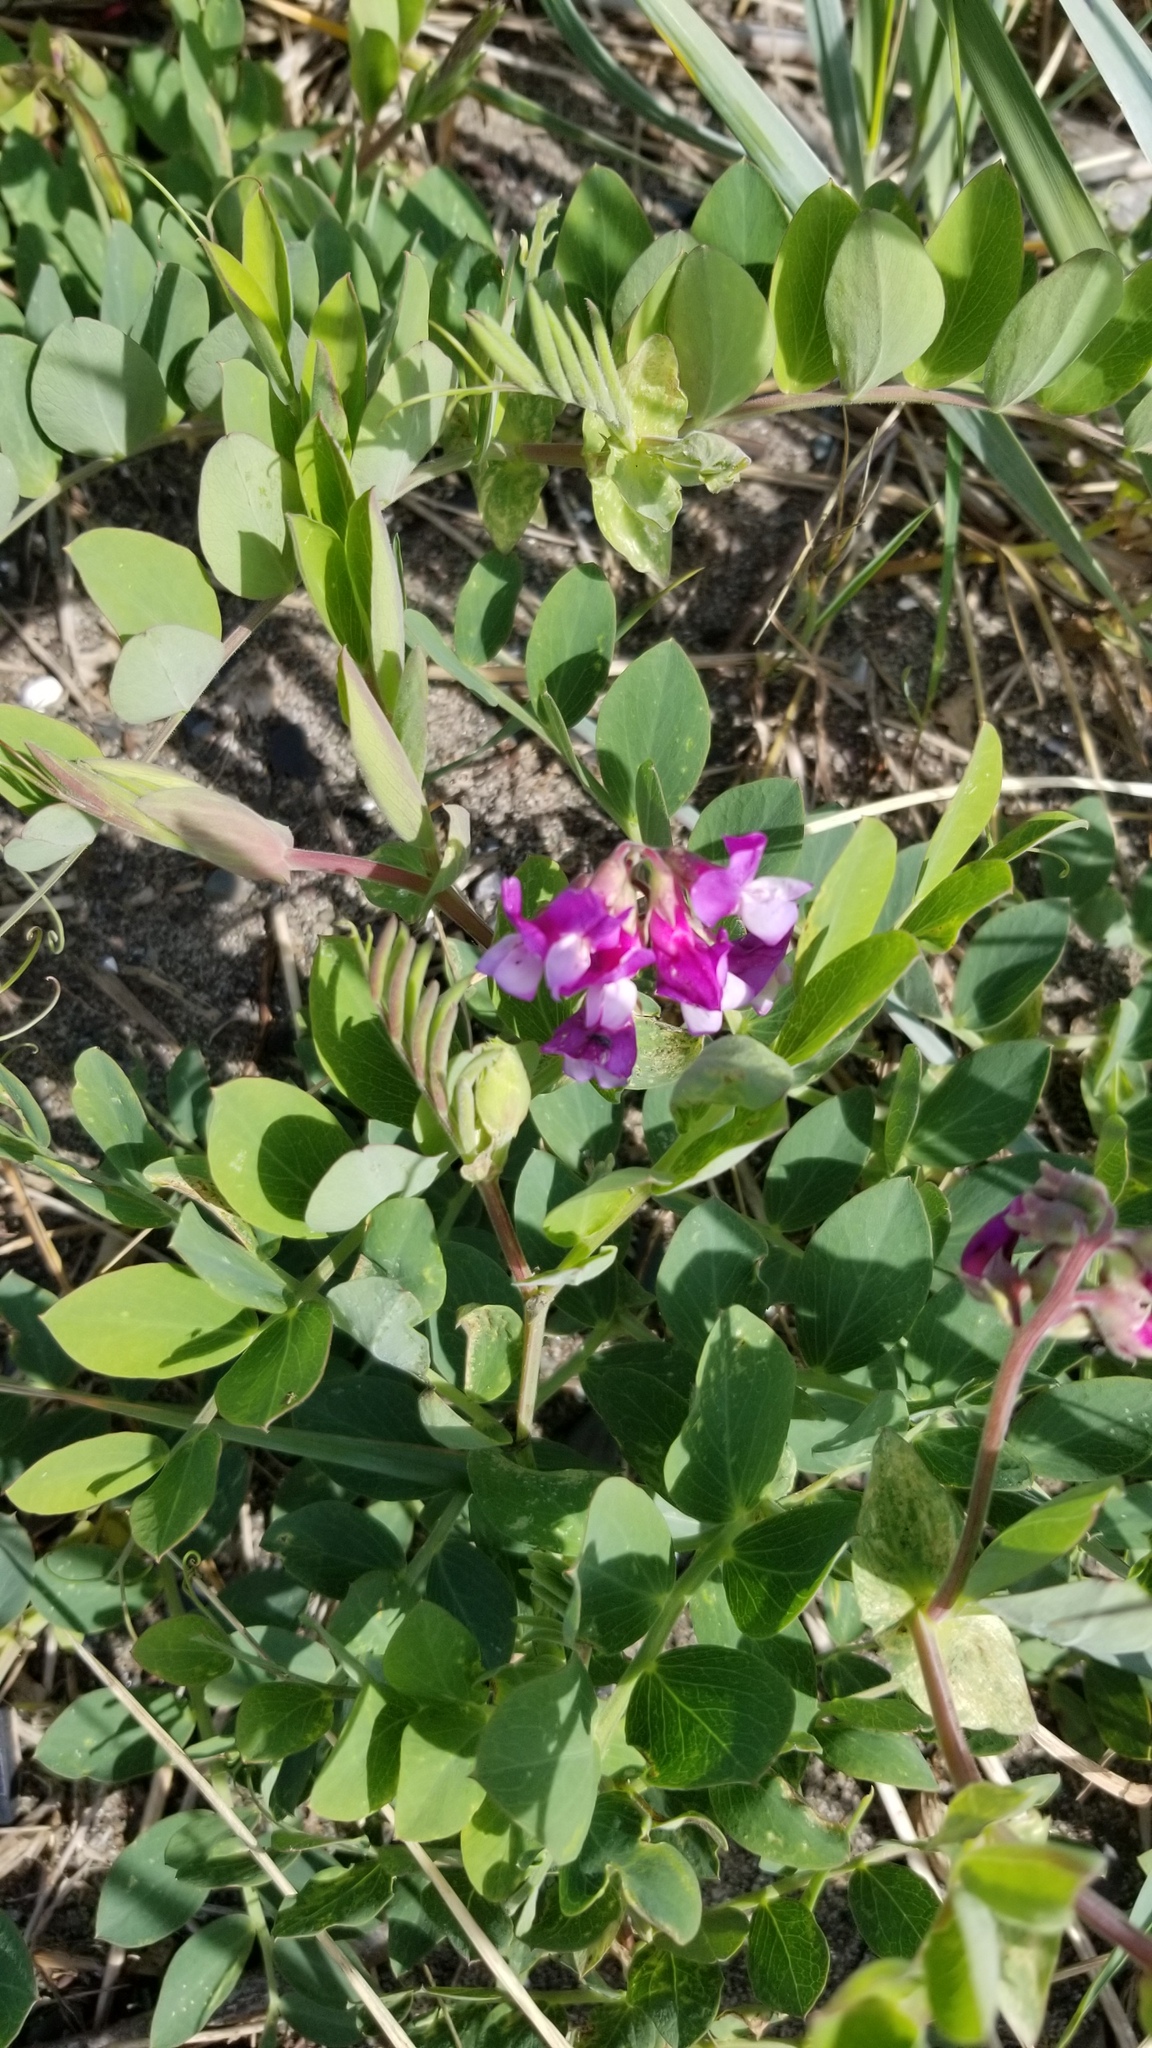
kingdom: Plantae
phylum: Tracheophyta
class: Magnoliopsida
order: Fabales
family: Fabaceae
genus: Lathyrus
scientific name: Lathyrus japonicus
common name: Sea pea
